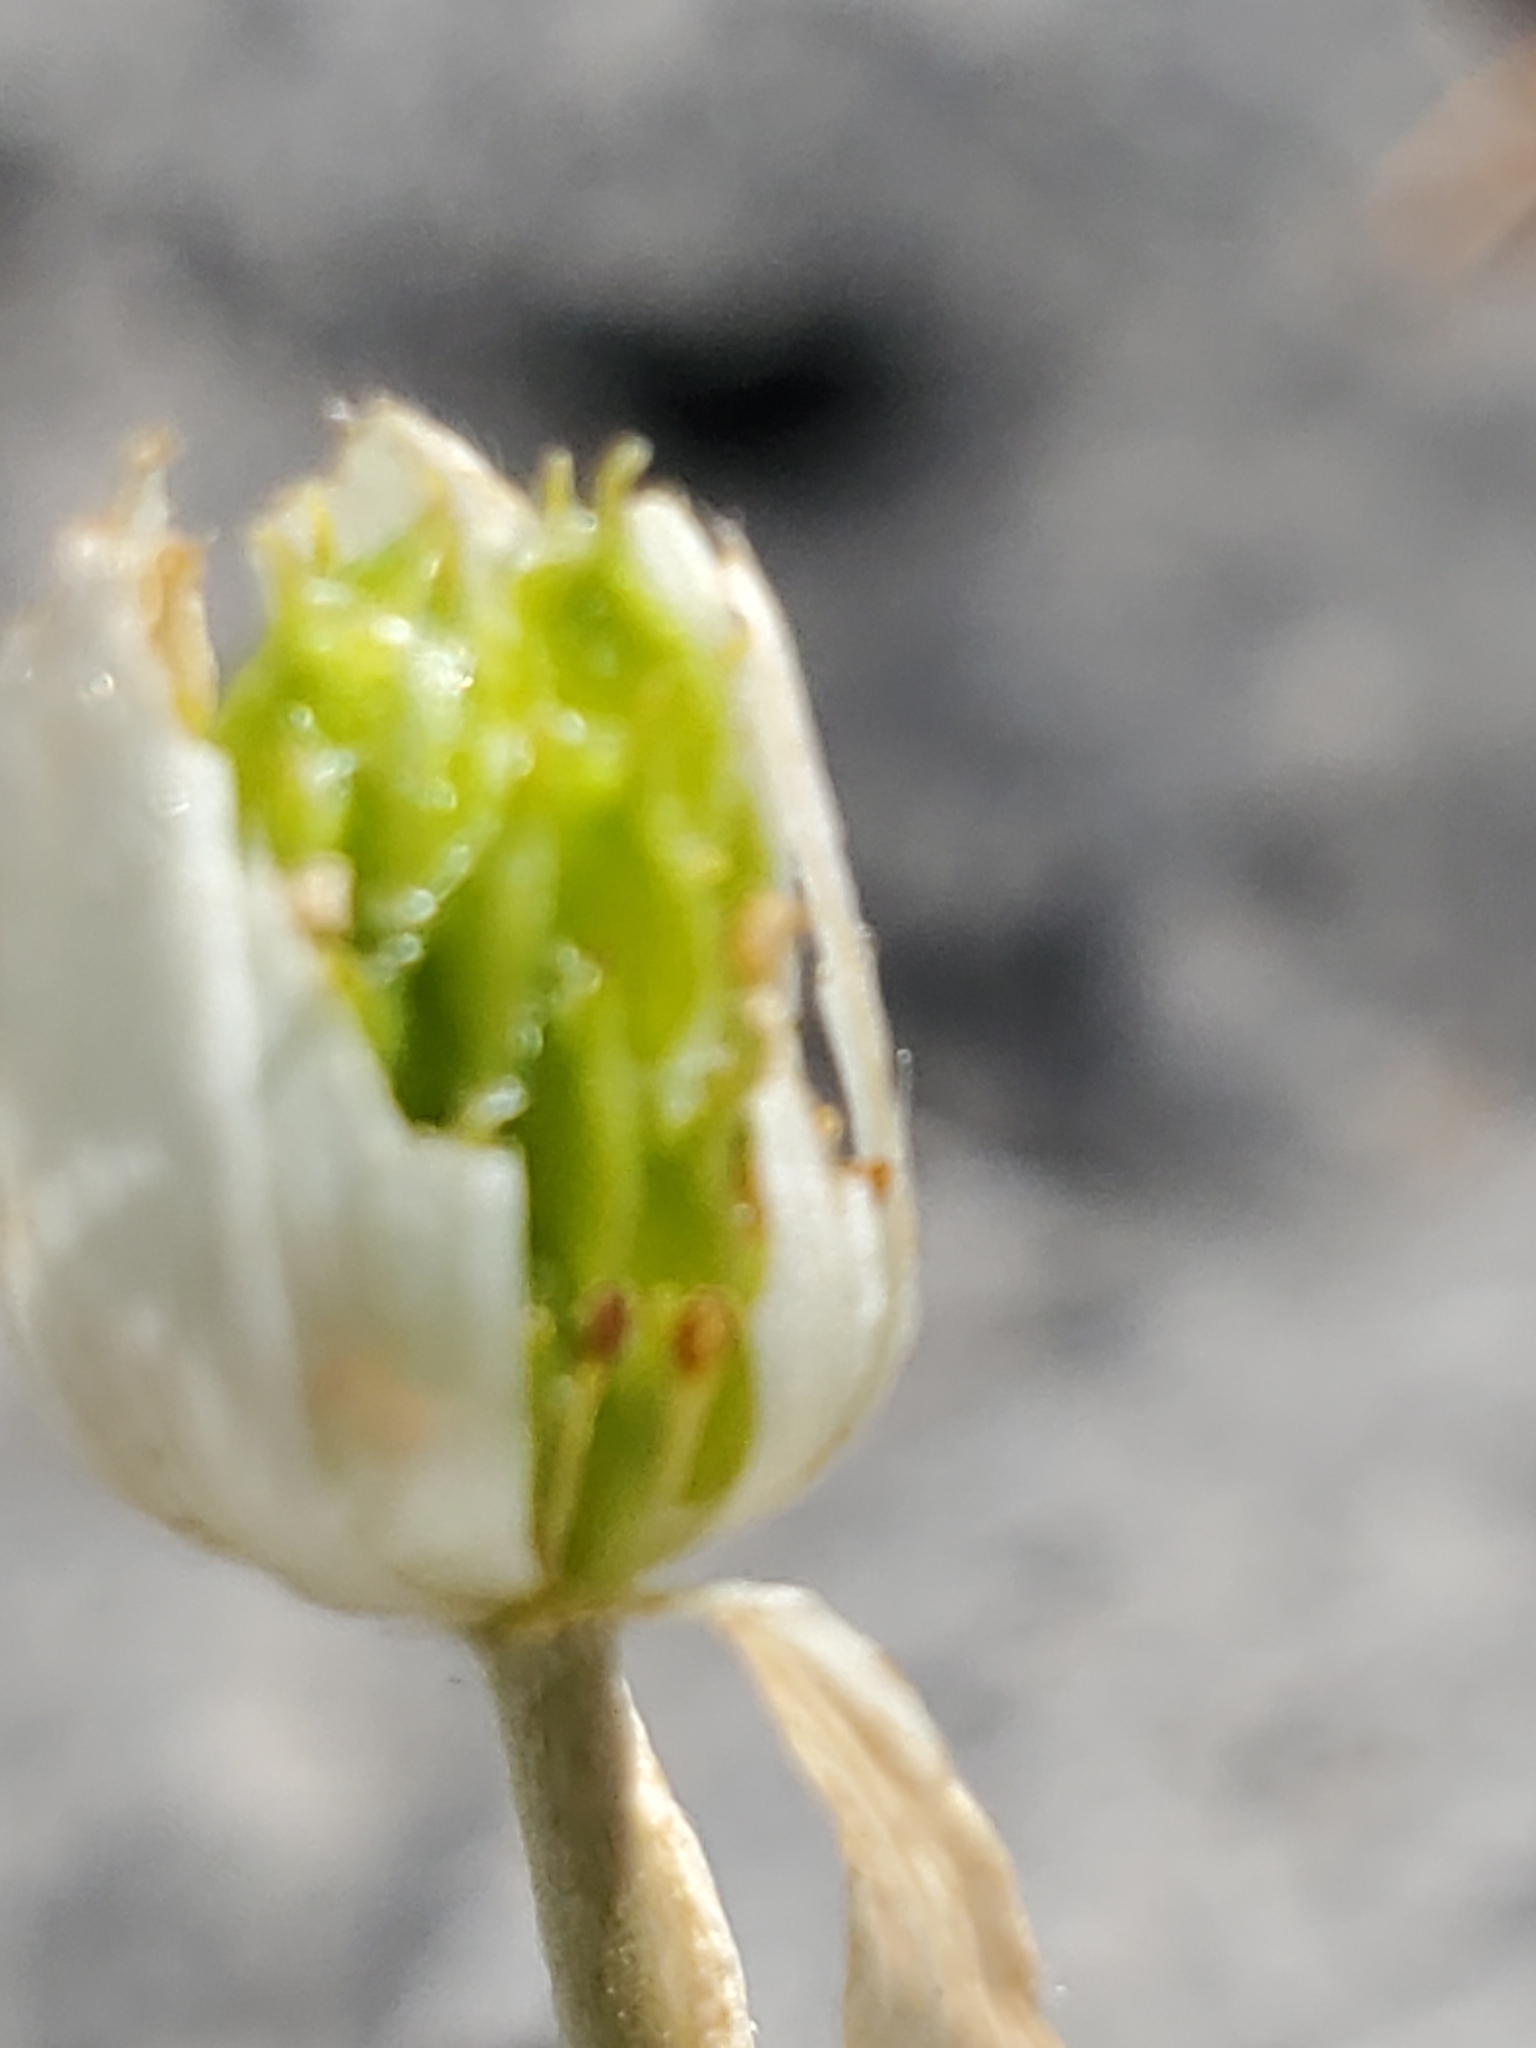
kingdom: Plantae
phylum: Tracheophyta
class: Magnoliopsida
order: Ranunculales
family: Ranunculaceae
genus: Anemone
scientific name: Anemone edwardsiana
